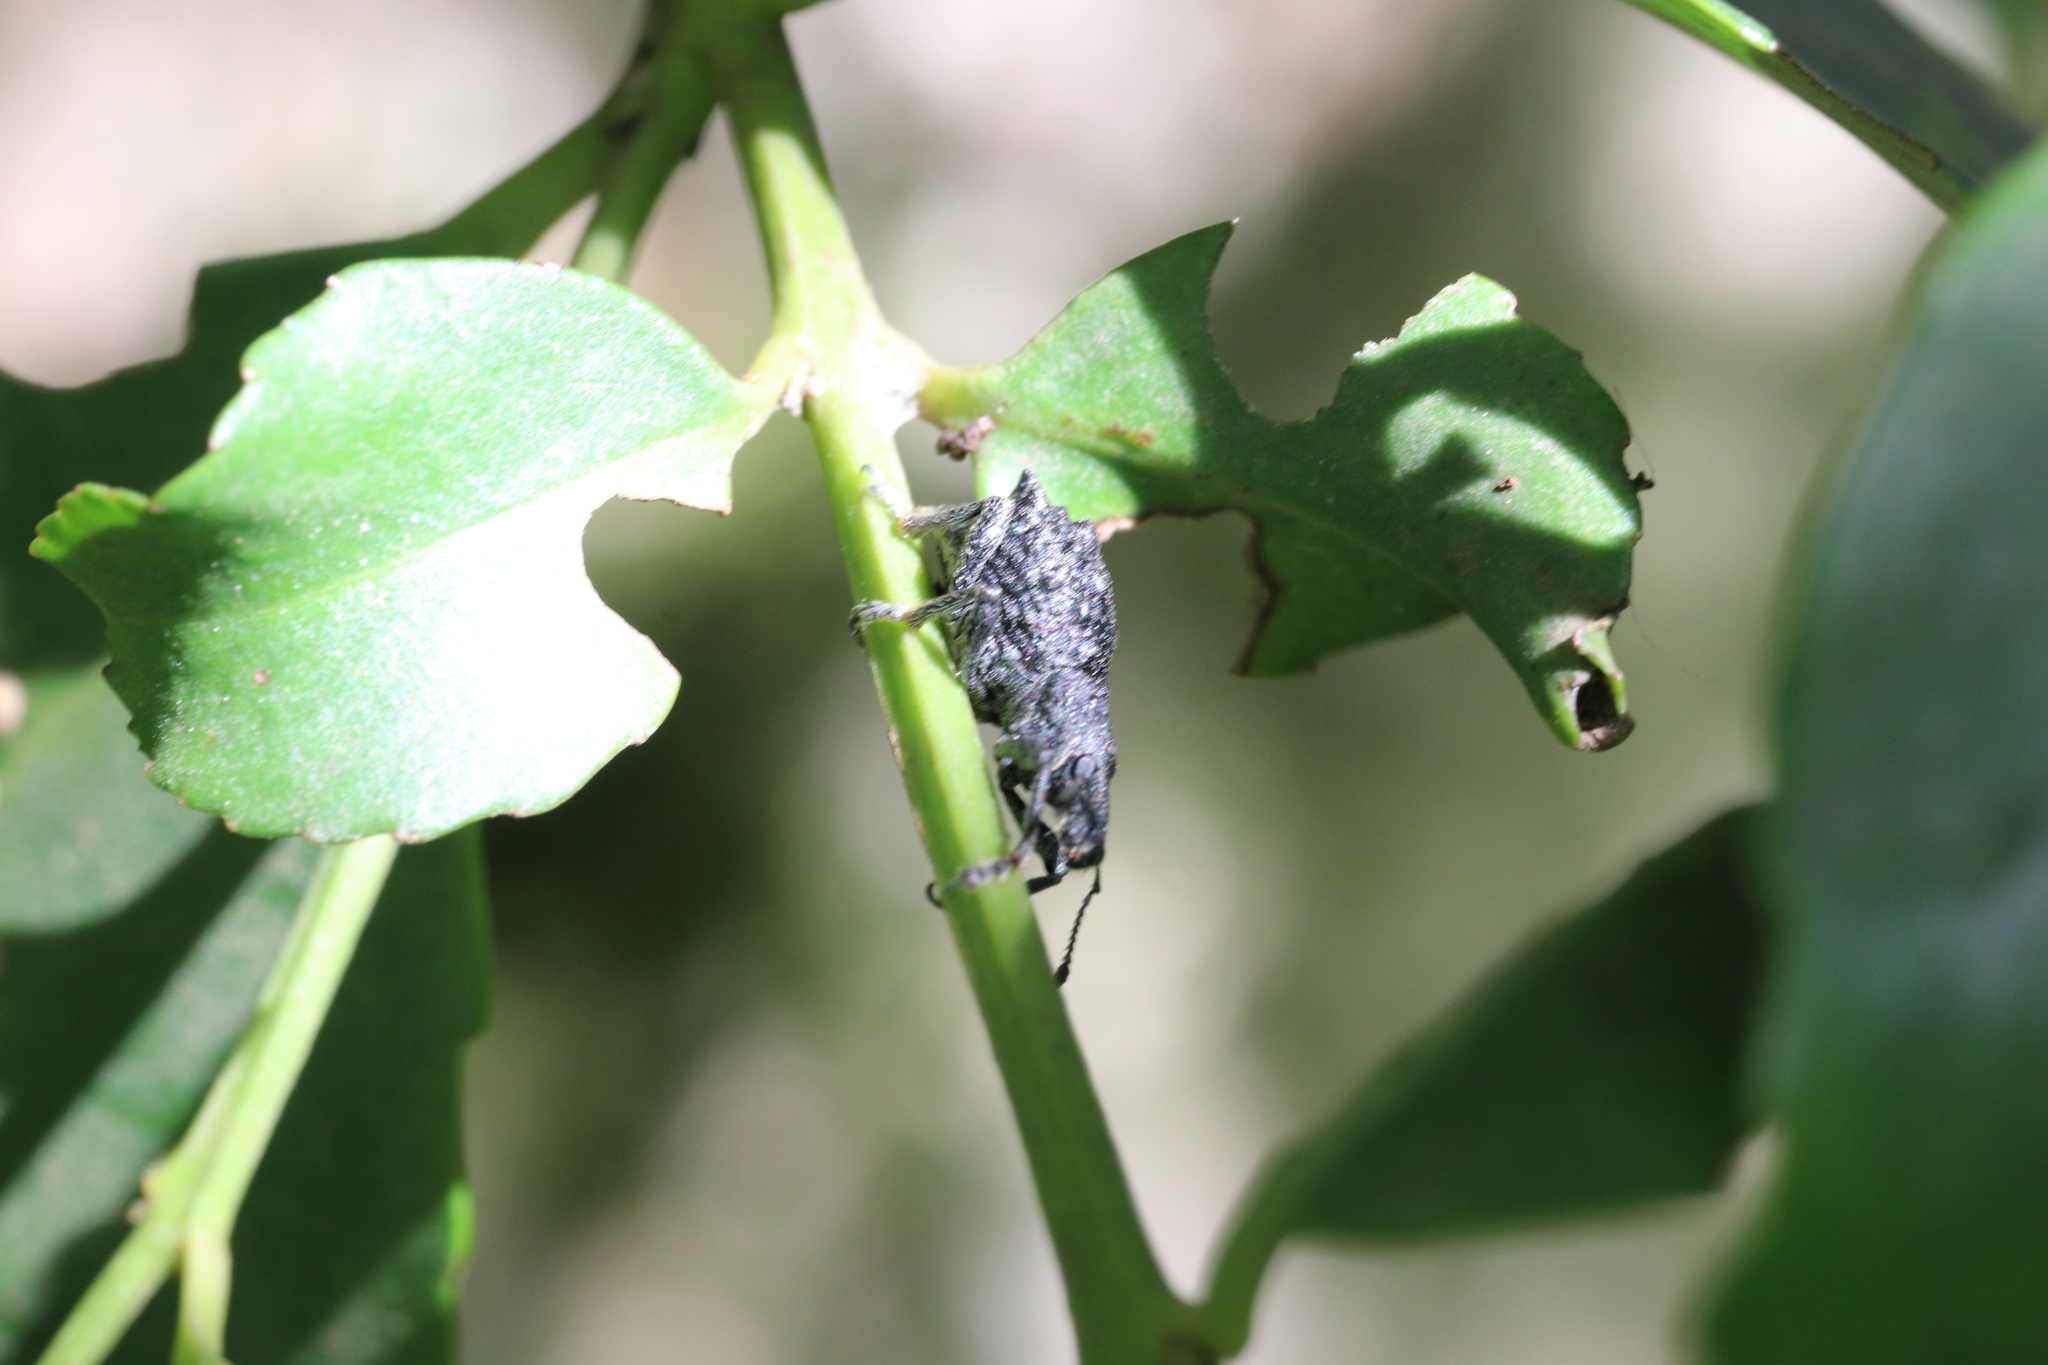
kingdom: Animalia
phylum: Arthropoda
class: Insecta
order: Coleoptera
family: Curculionidae
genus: Megalometis
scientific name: Megalometis spiniferus
